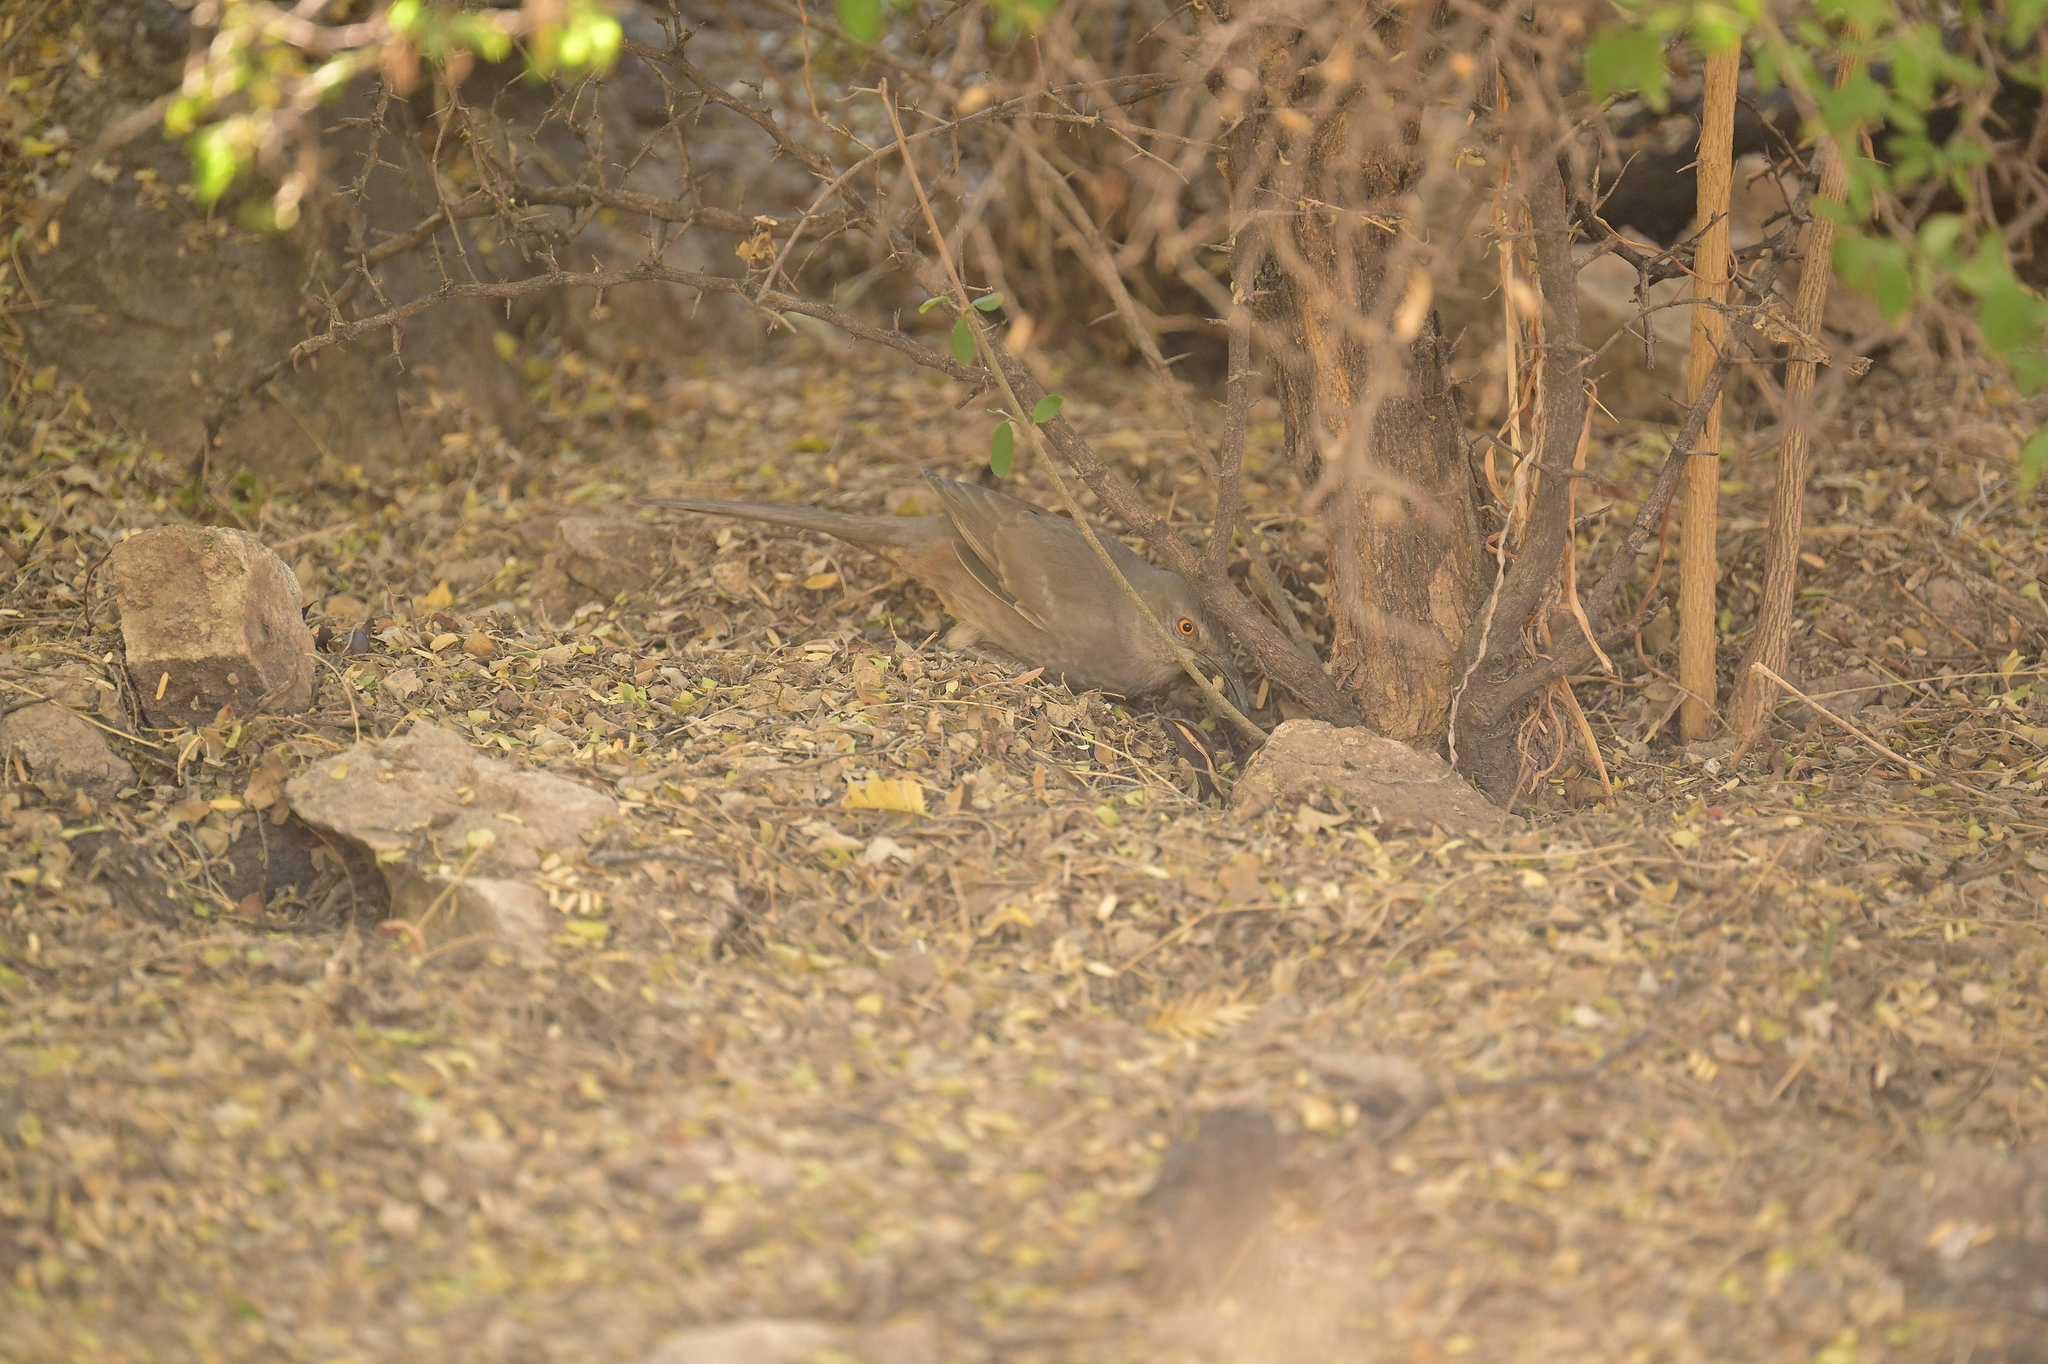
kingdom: Animalia
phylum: Chordata
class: Aves
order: Passeriformes
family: Mimidae
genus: Toxostoma
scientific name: Toxostoma curvirostre
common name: Curve-billed thrasher
